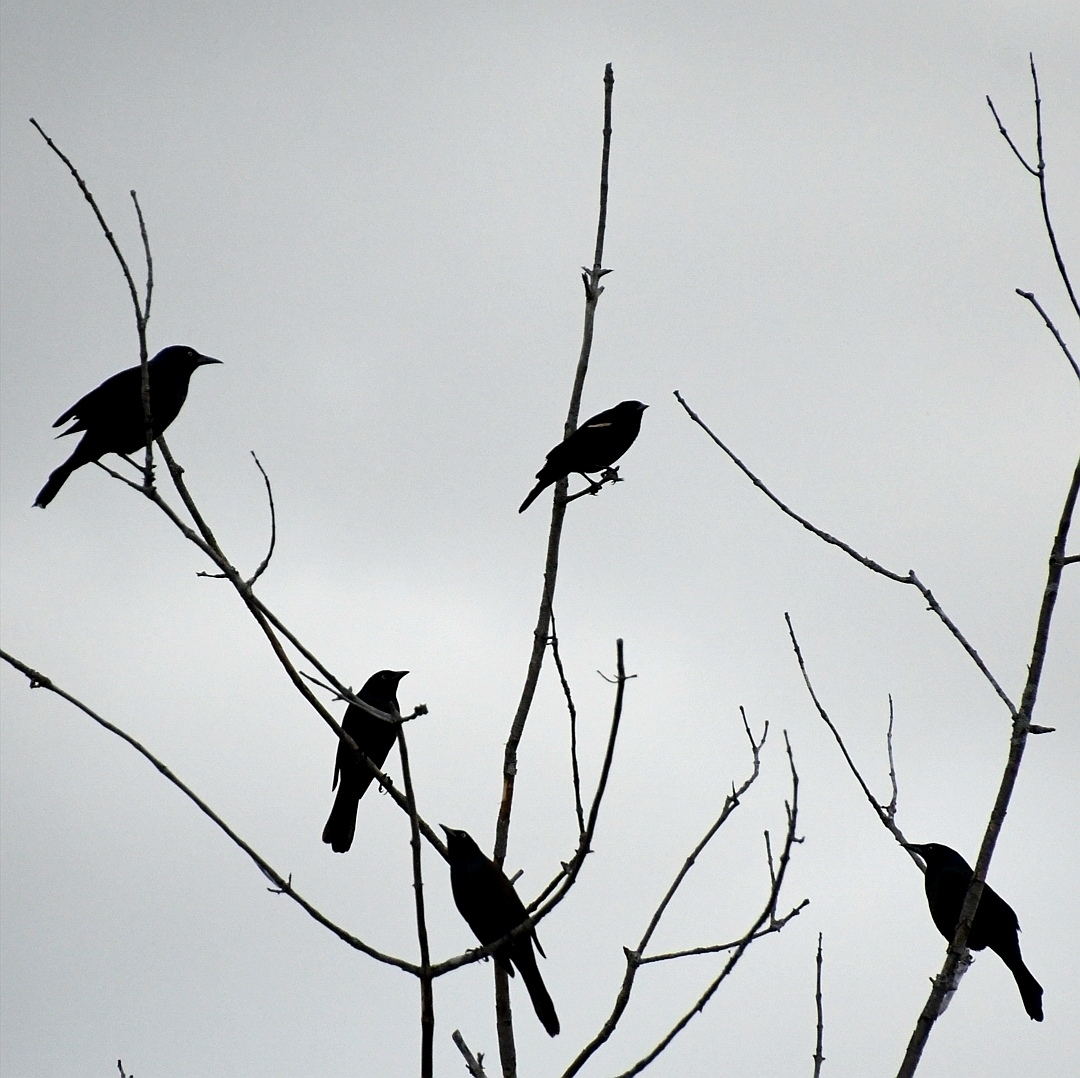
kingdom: Animalia
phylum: Chordata
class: Aves
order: Passeriformes
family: Icteridae
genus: Agelaius
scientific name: Agelaius phoeniceus
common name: Red-winged blackbird
